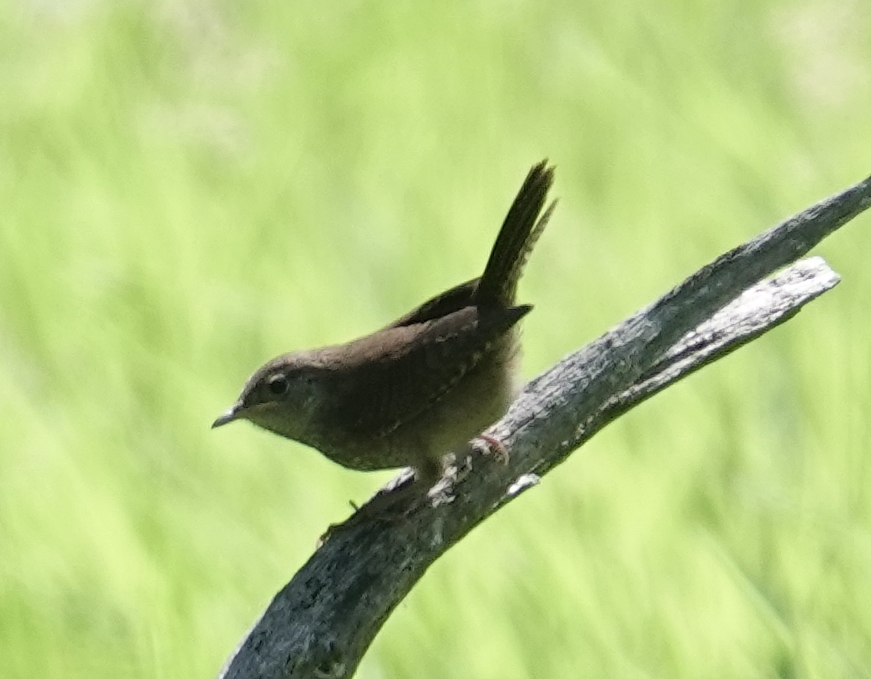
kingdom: Animalia
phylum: Chordata
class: Aves
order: Passeriformes
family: Troglodytidae
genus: Troglodytes
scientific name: Troglodytes aedon
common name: House wren
